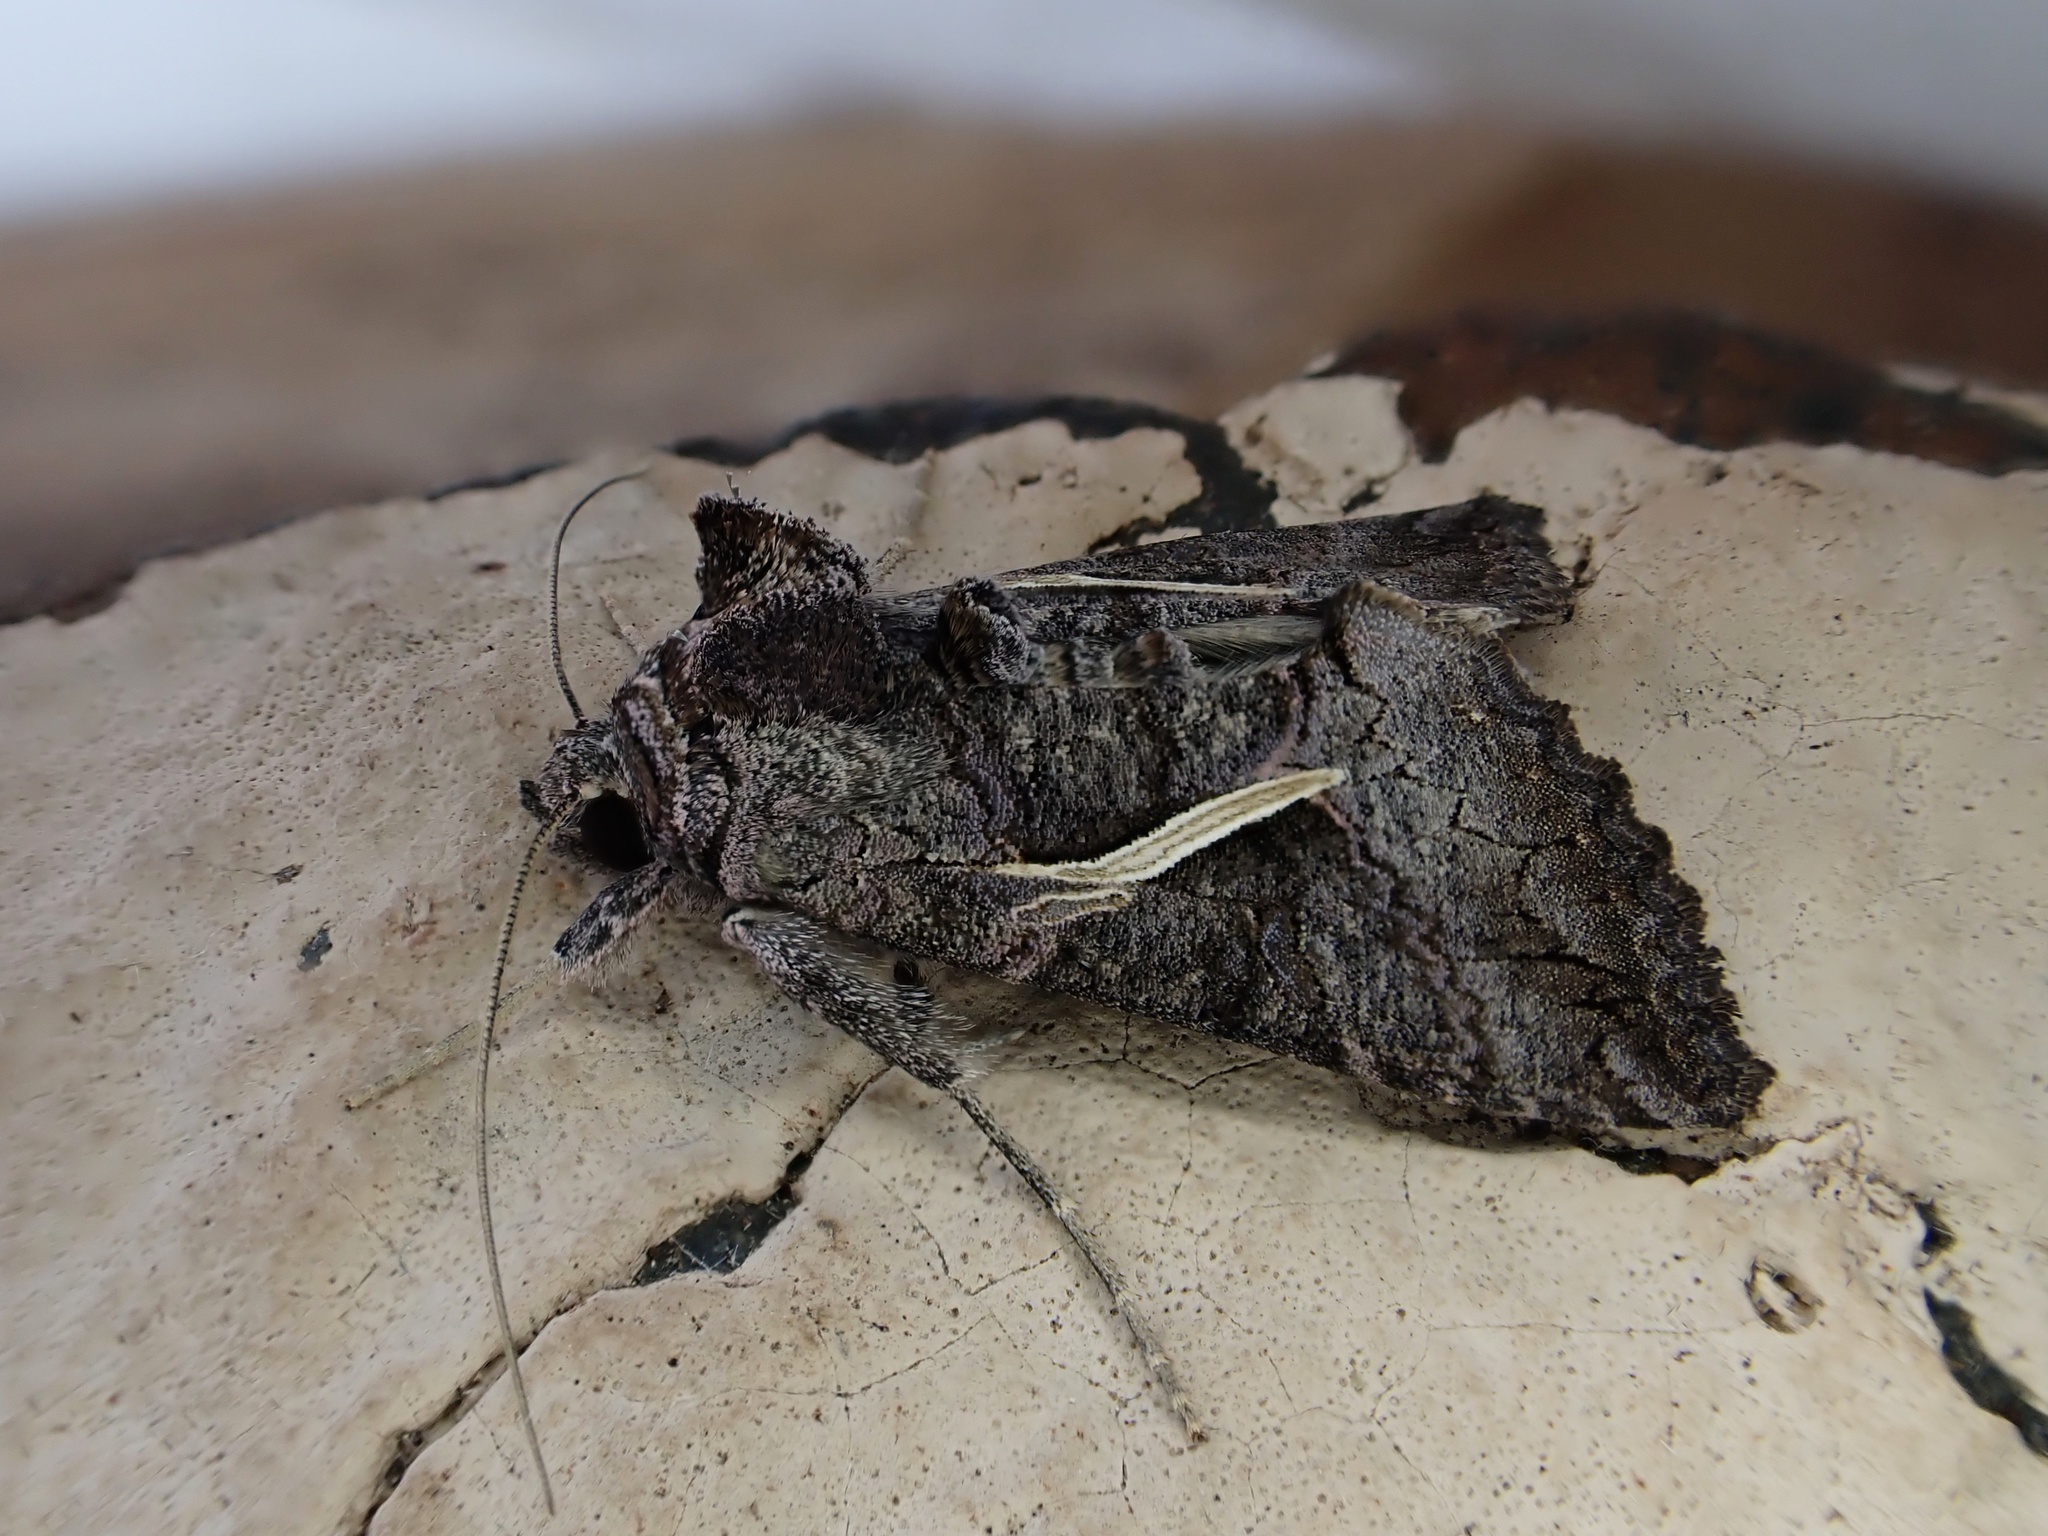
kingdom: Animalia
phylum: Arthropoda
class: Insecta
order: Lepidoptera
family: Noctuidae
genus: Ctenoplusia
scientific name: Ctenoplusia albostriata
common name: Moth
